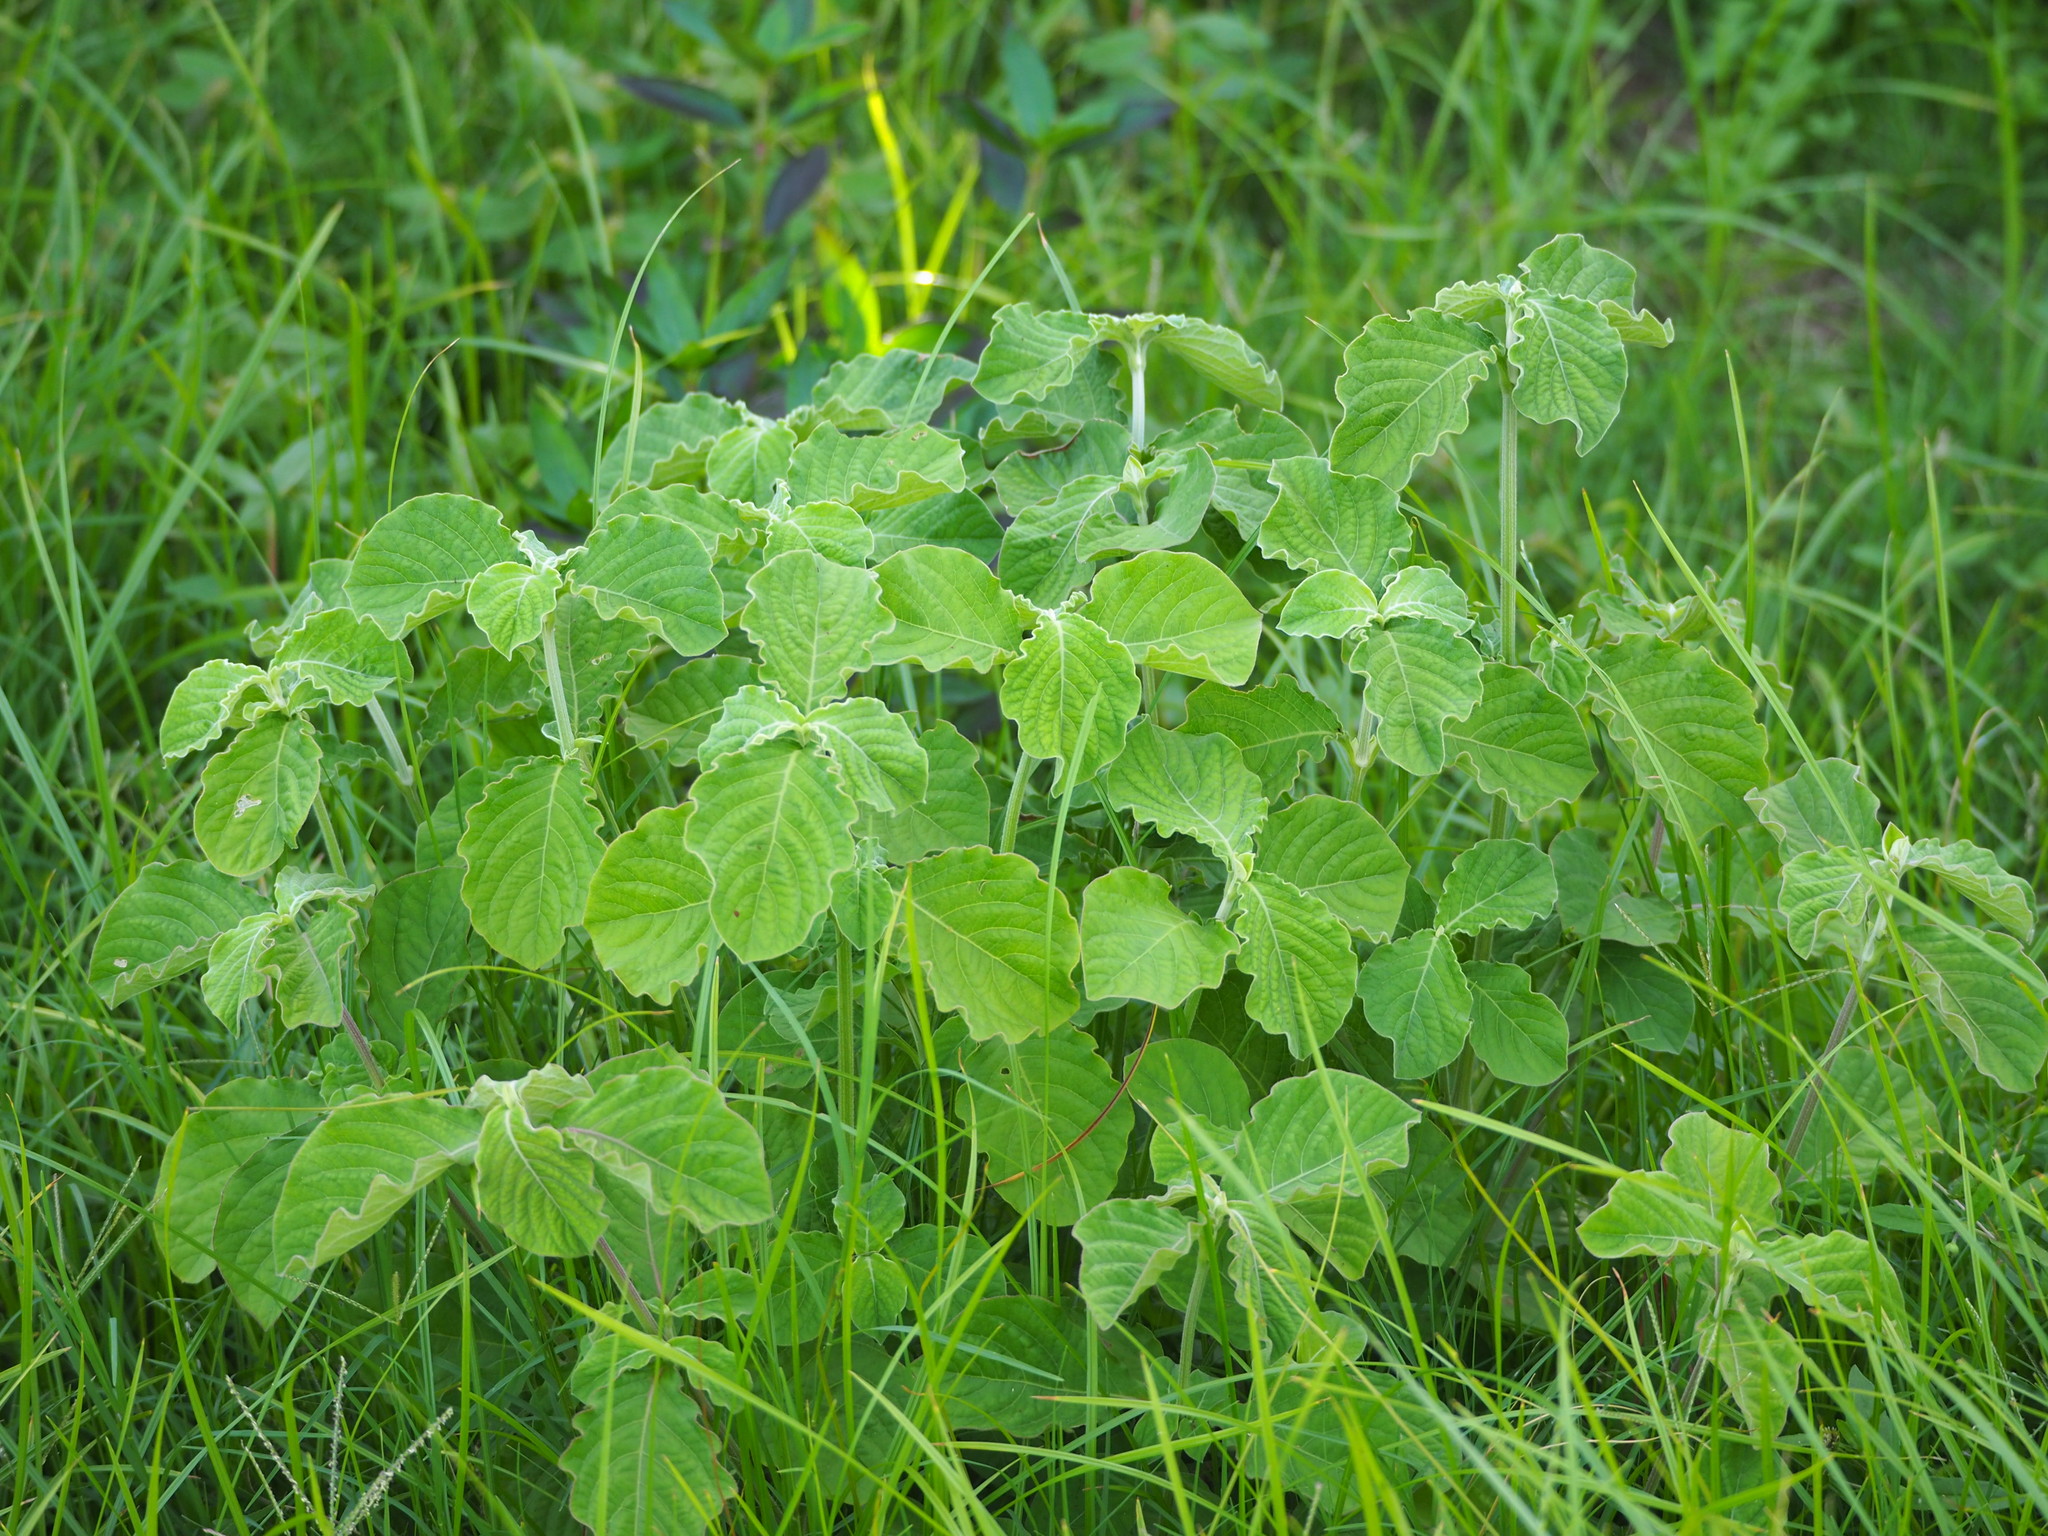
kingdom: Plantae
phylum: Tracheophyta
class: Magnoliopsida
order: Caryophyllales
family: Amaranthaceae
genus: Achyranthes
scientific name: Achyranthes aspera
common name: Devil's horsewhip
